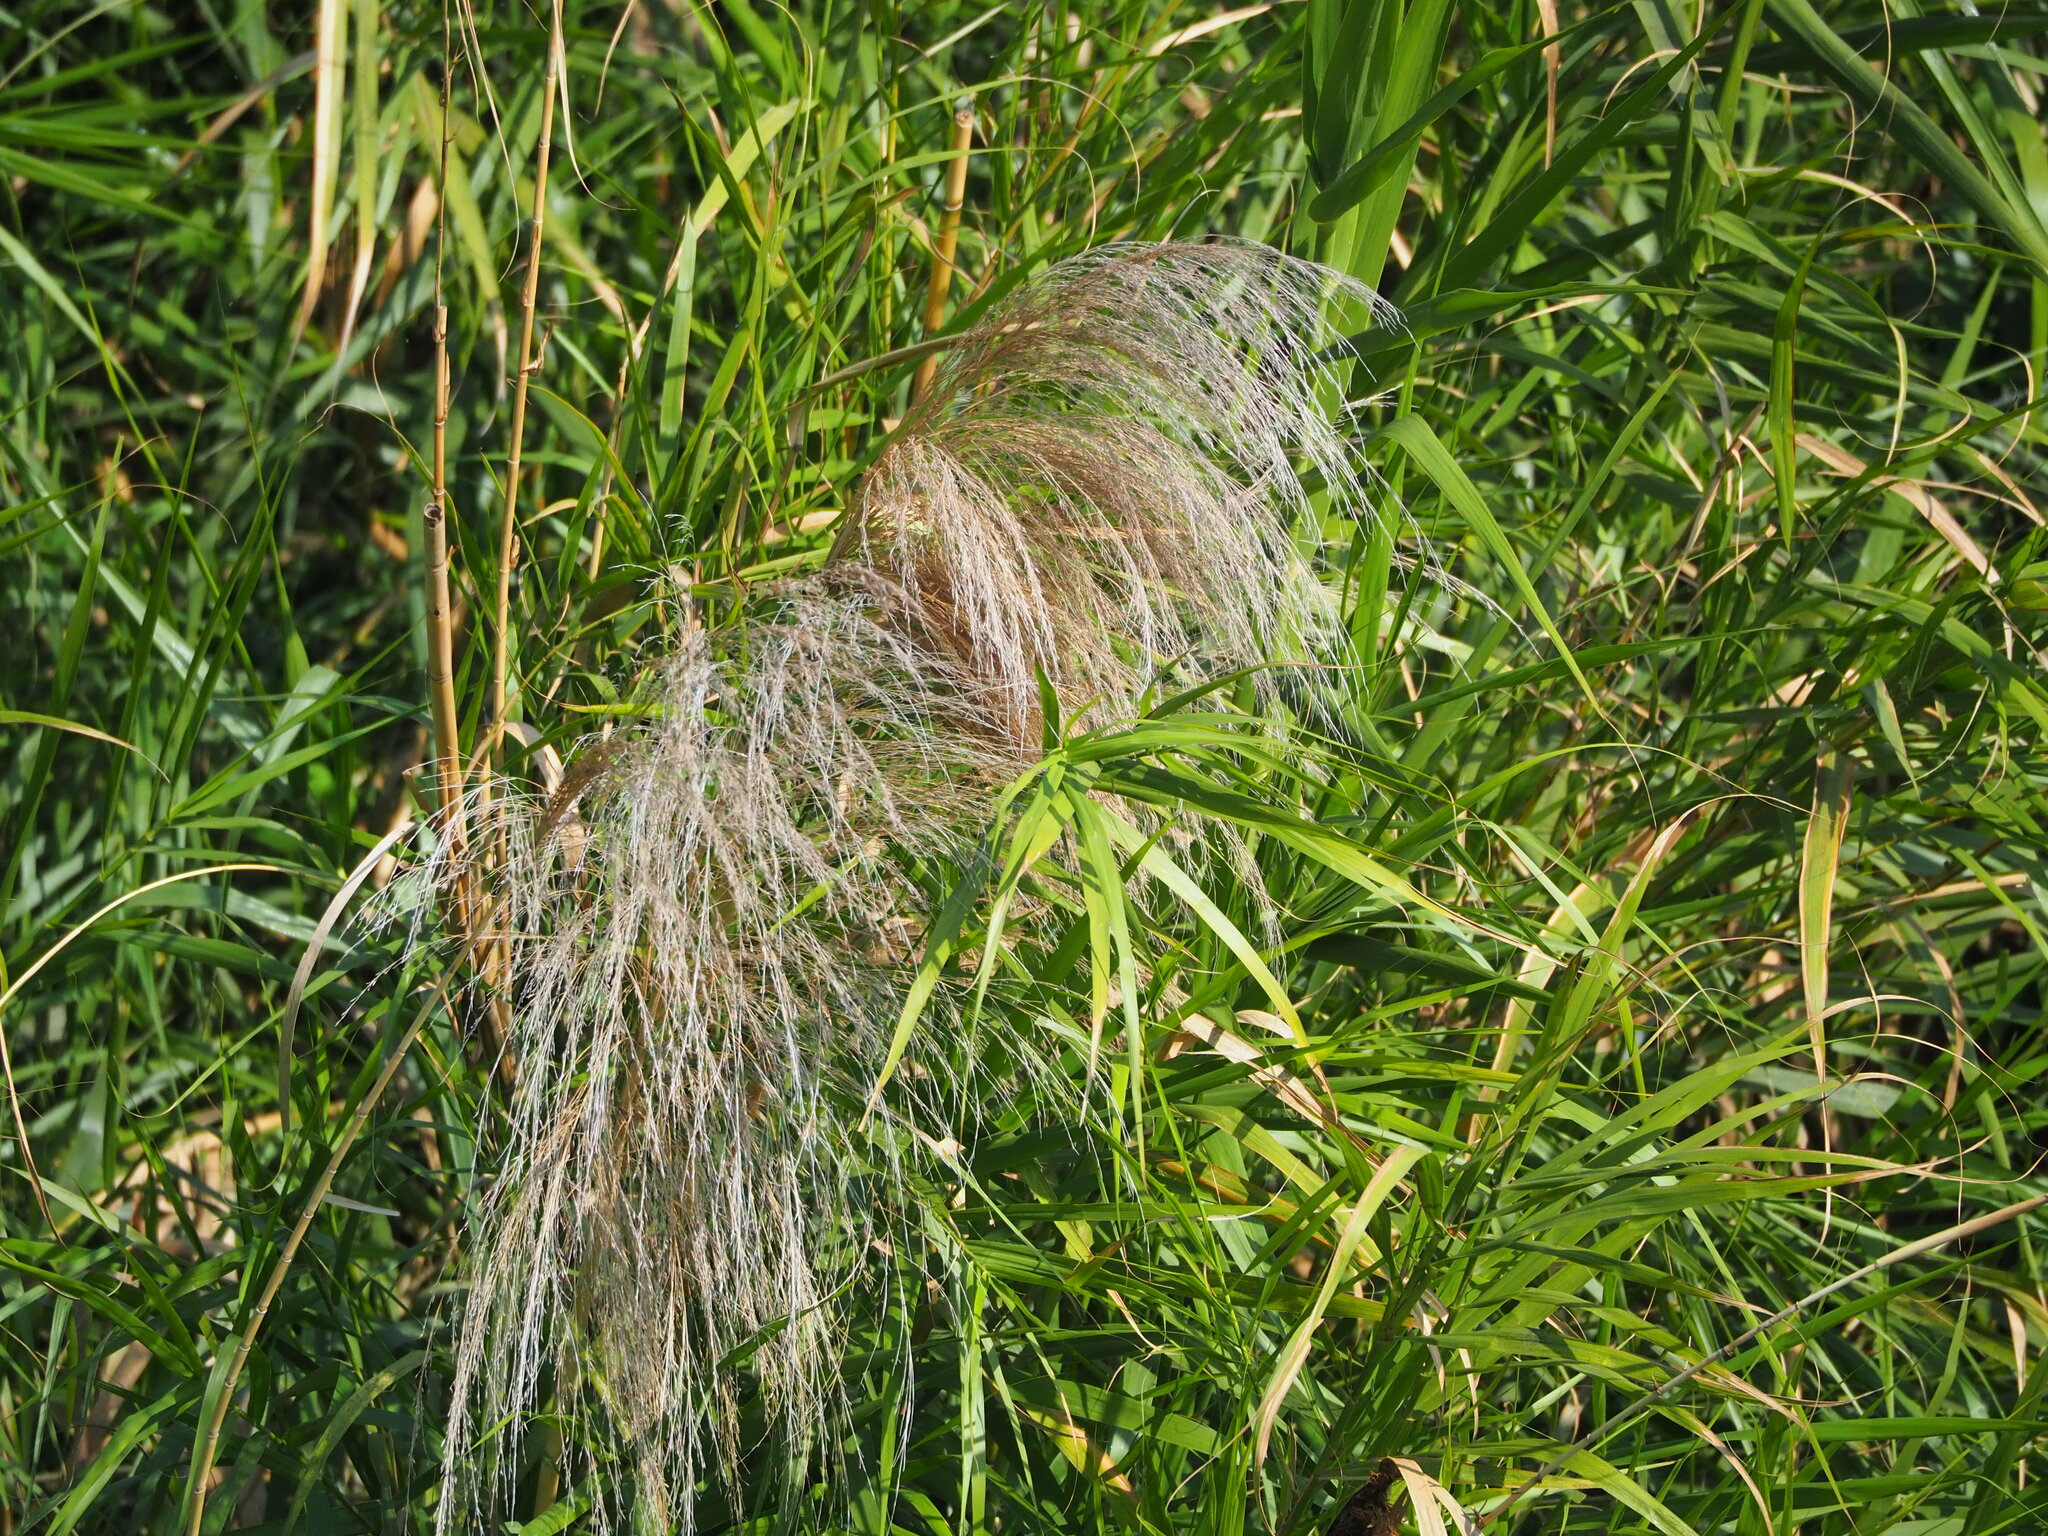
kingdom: Plantae
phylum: Tracheophyta
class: Liliopsida
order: Poales
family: Poaceae
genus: Phragmites
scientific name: Phragmites karka
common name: Tropical reed
